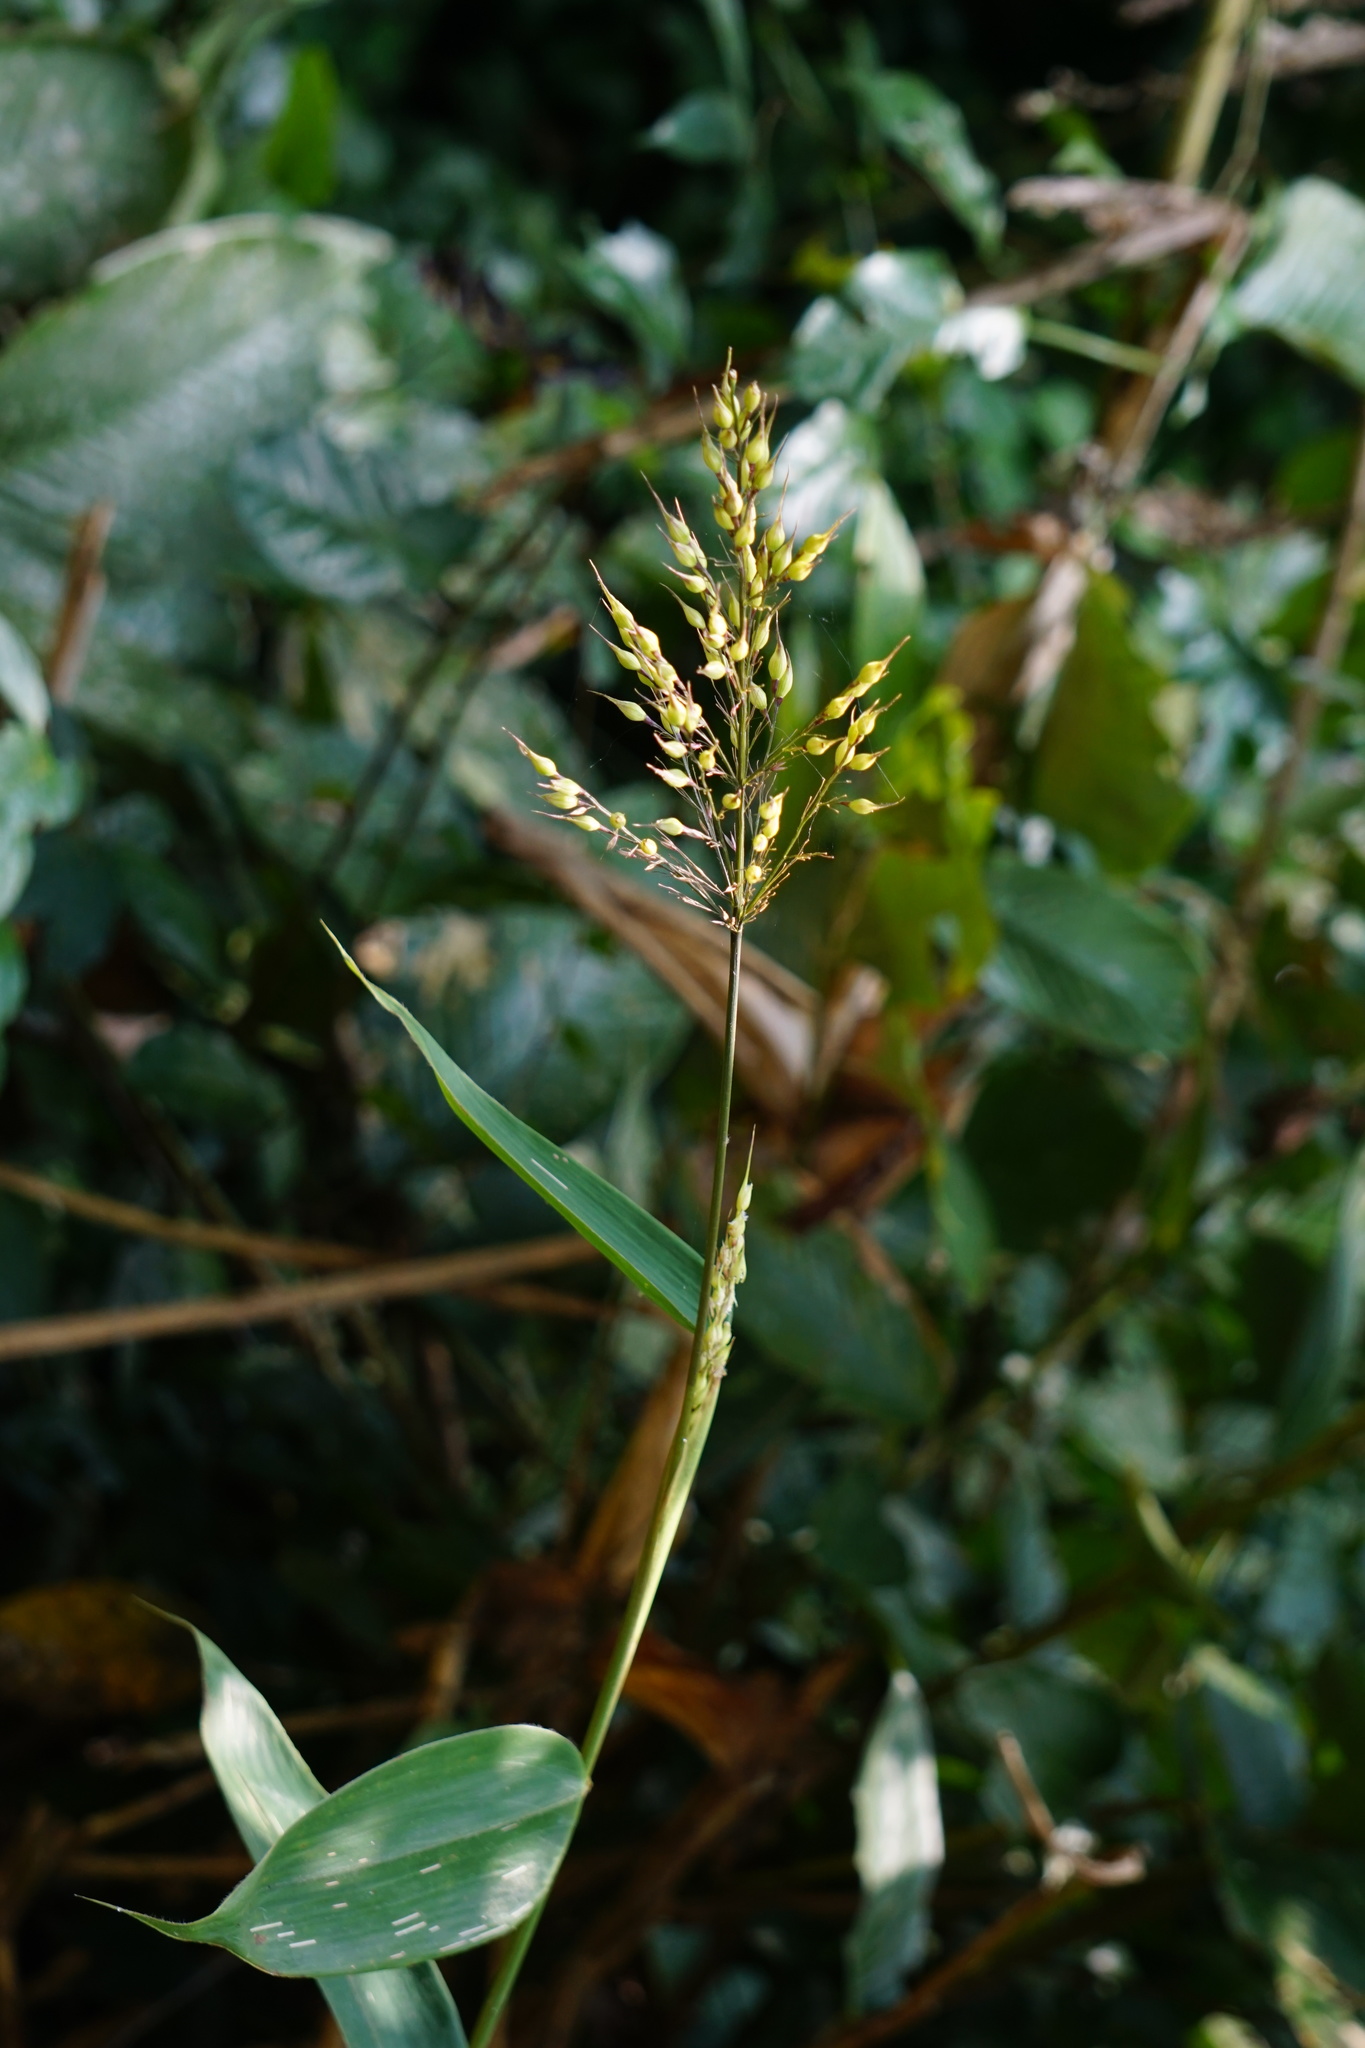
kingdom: Plantae
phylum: Tracheophyta
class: Liliopsida
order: Poales
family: Poaceae
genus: Olyra
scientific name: Olyra latifolia
